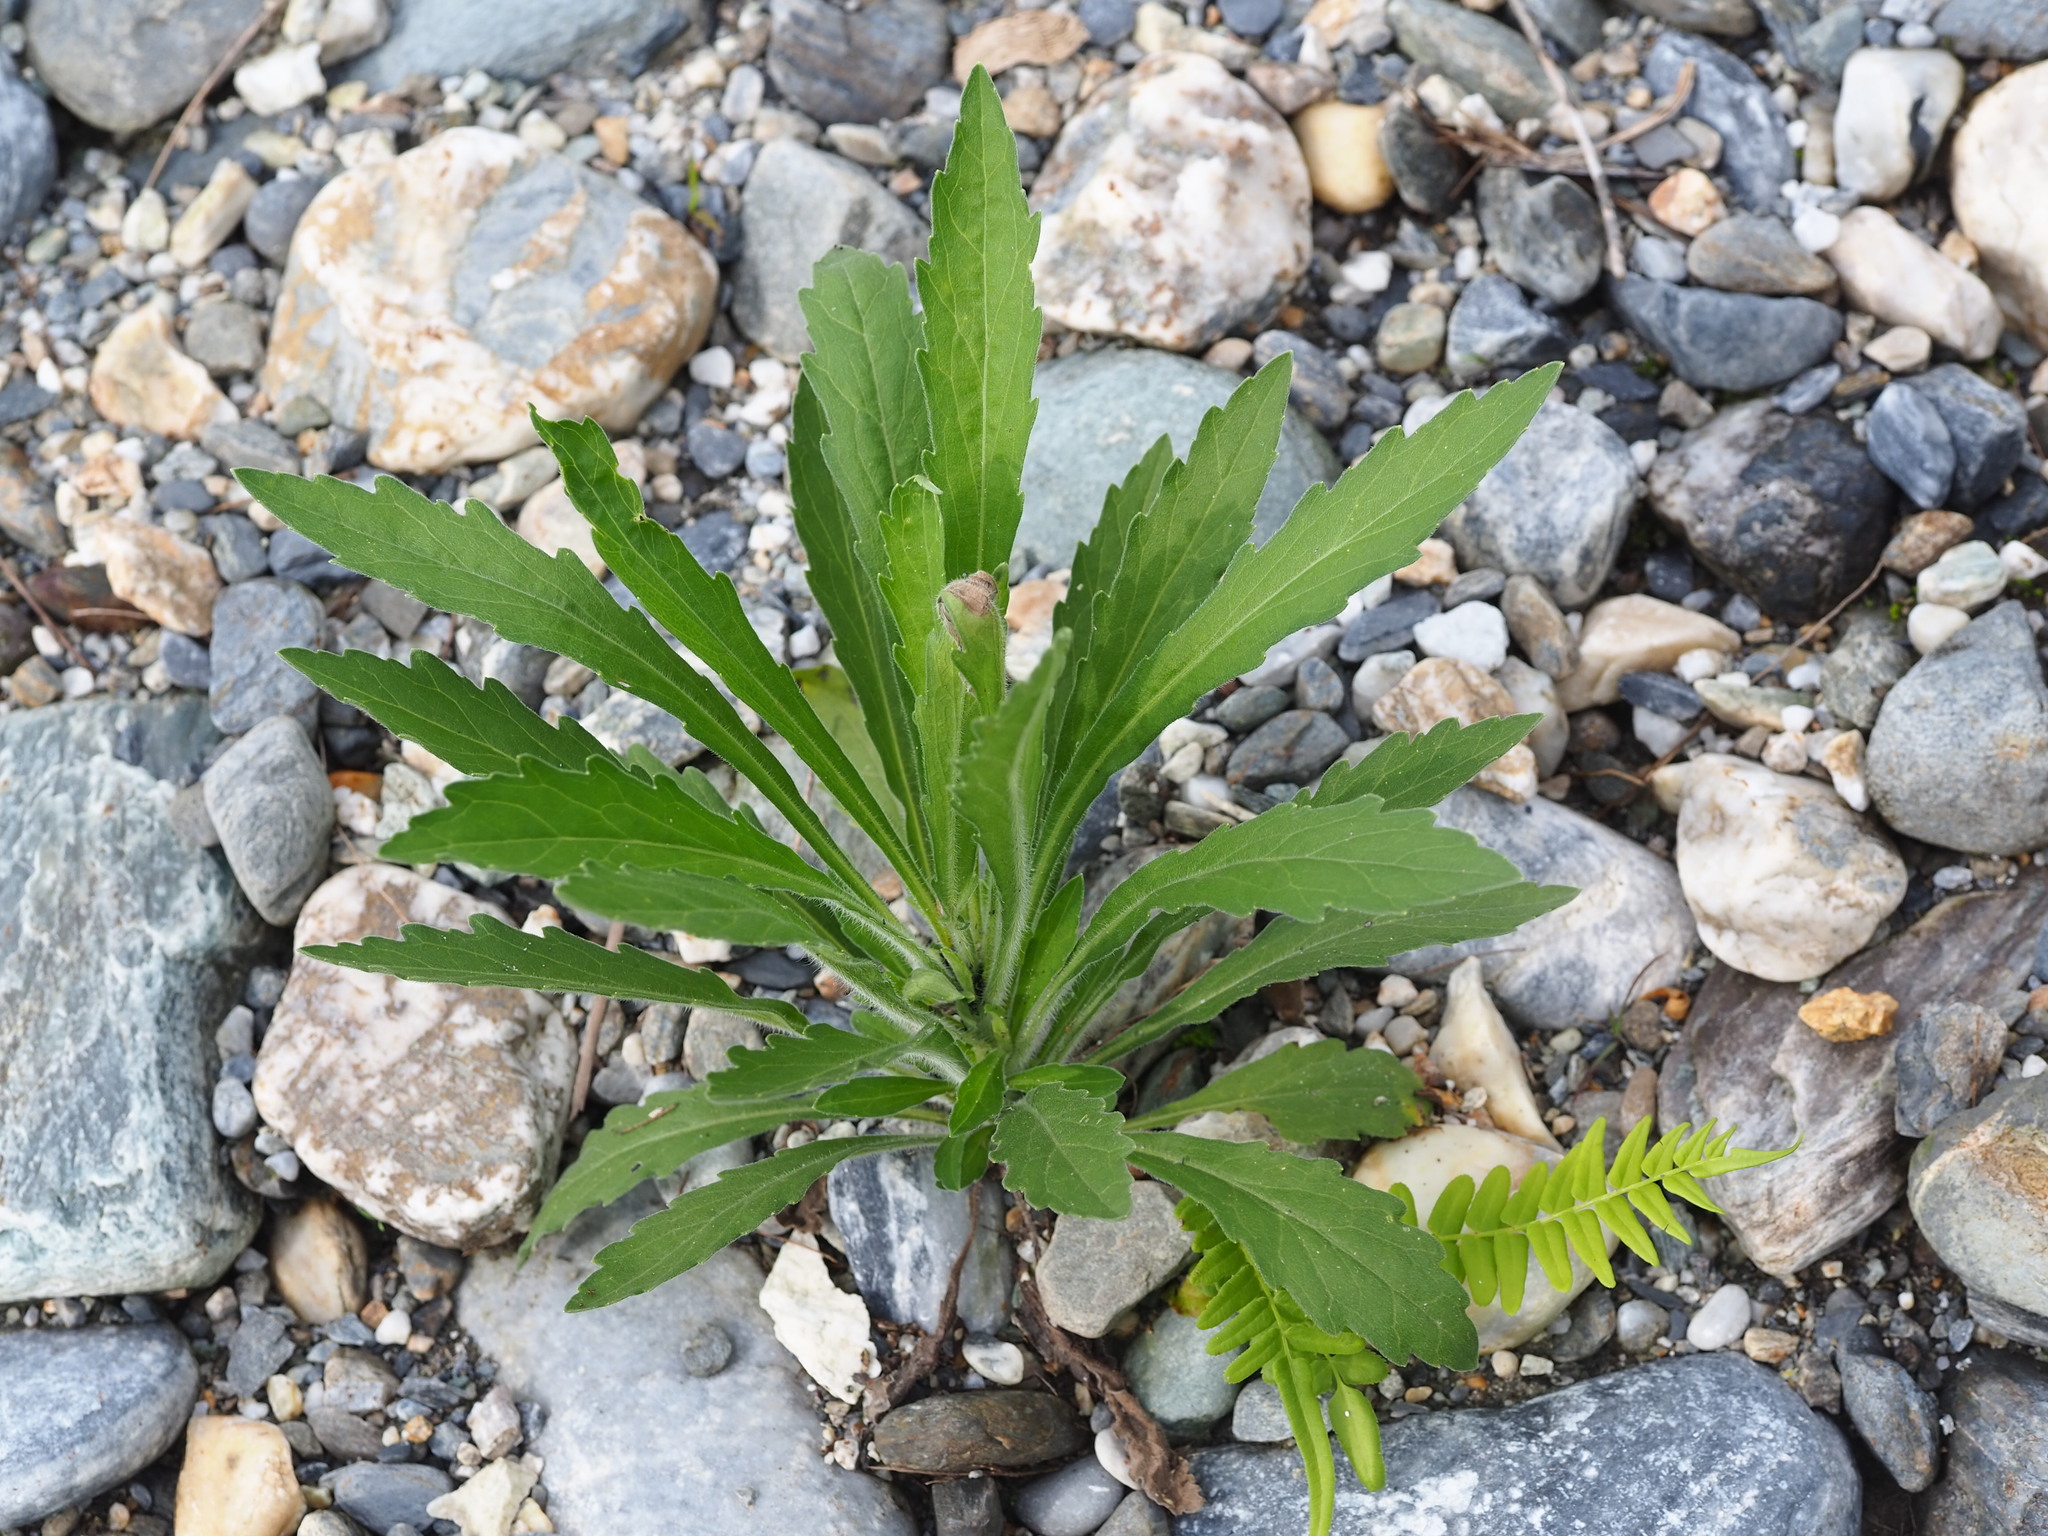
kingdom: Plantae
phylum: Tracheophyta
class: Magnoliopsida
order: Asterales
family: Asteraceae
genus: Erigeron
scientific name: Erigeron sumatrensis
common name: Daisy
